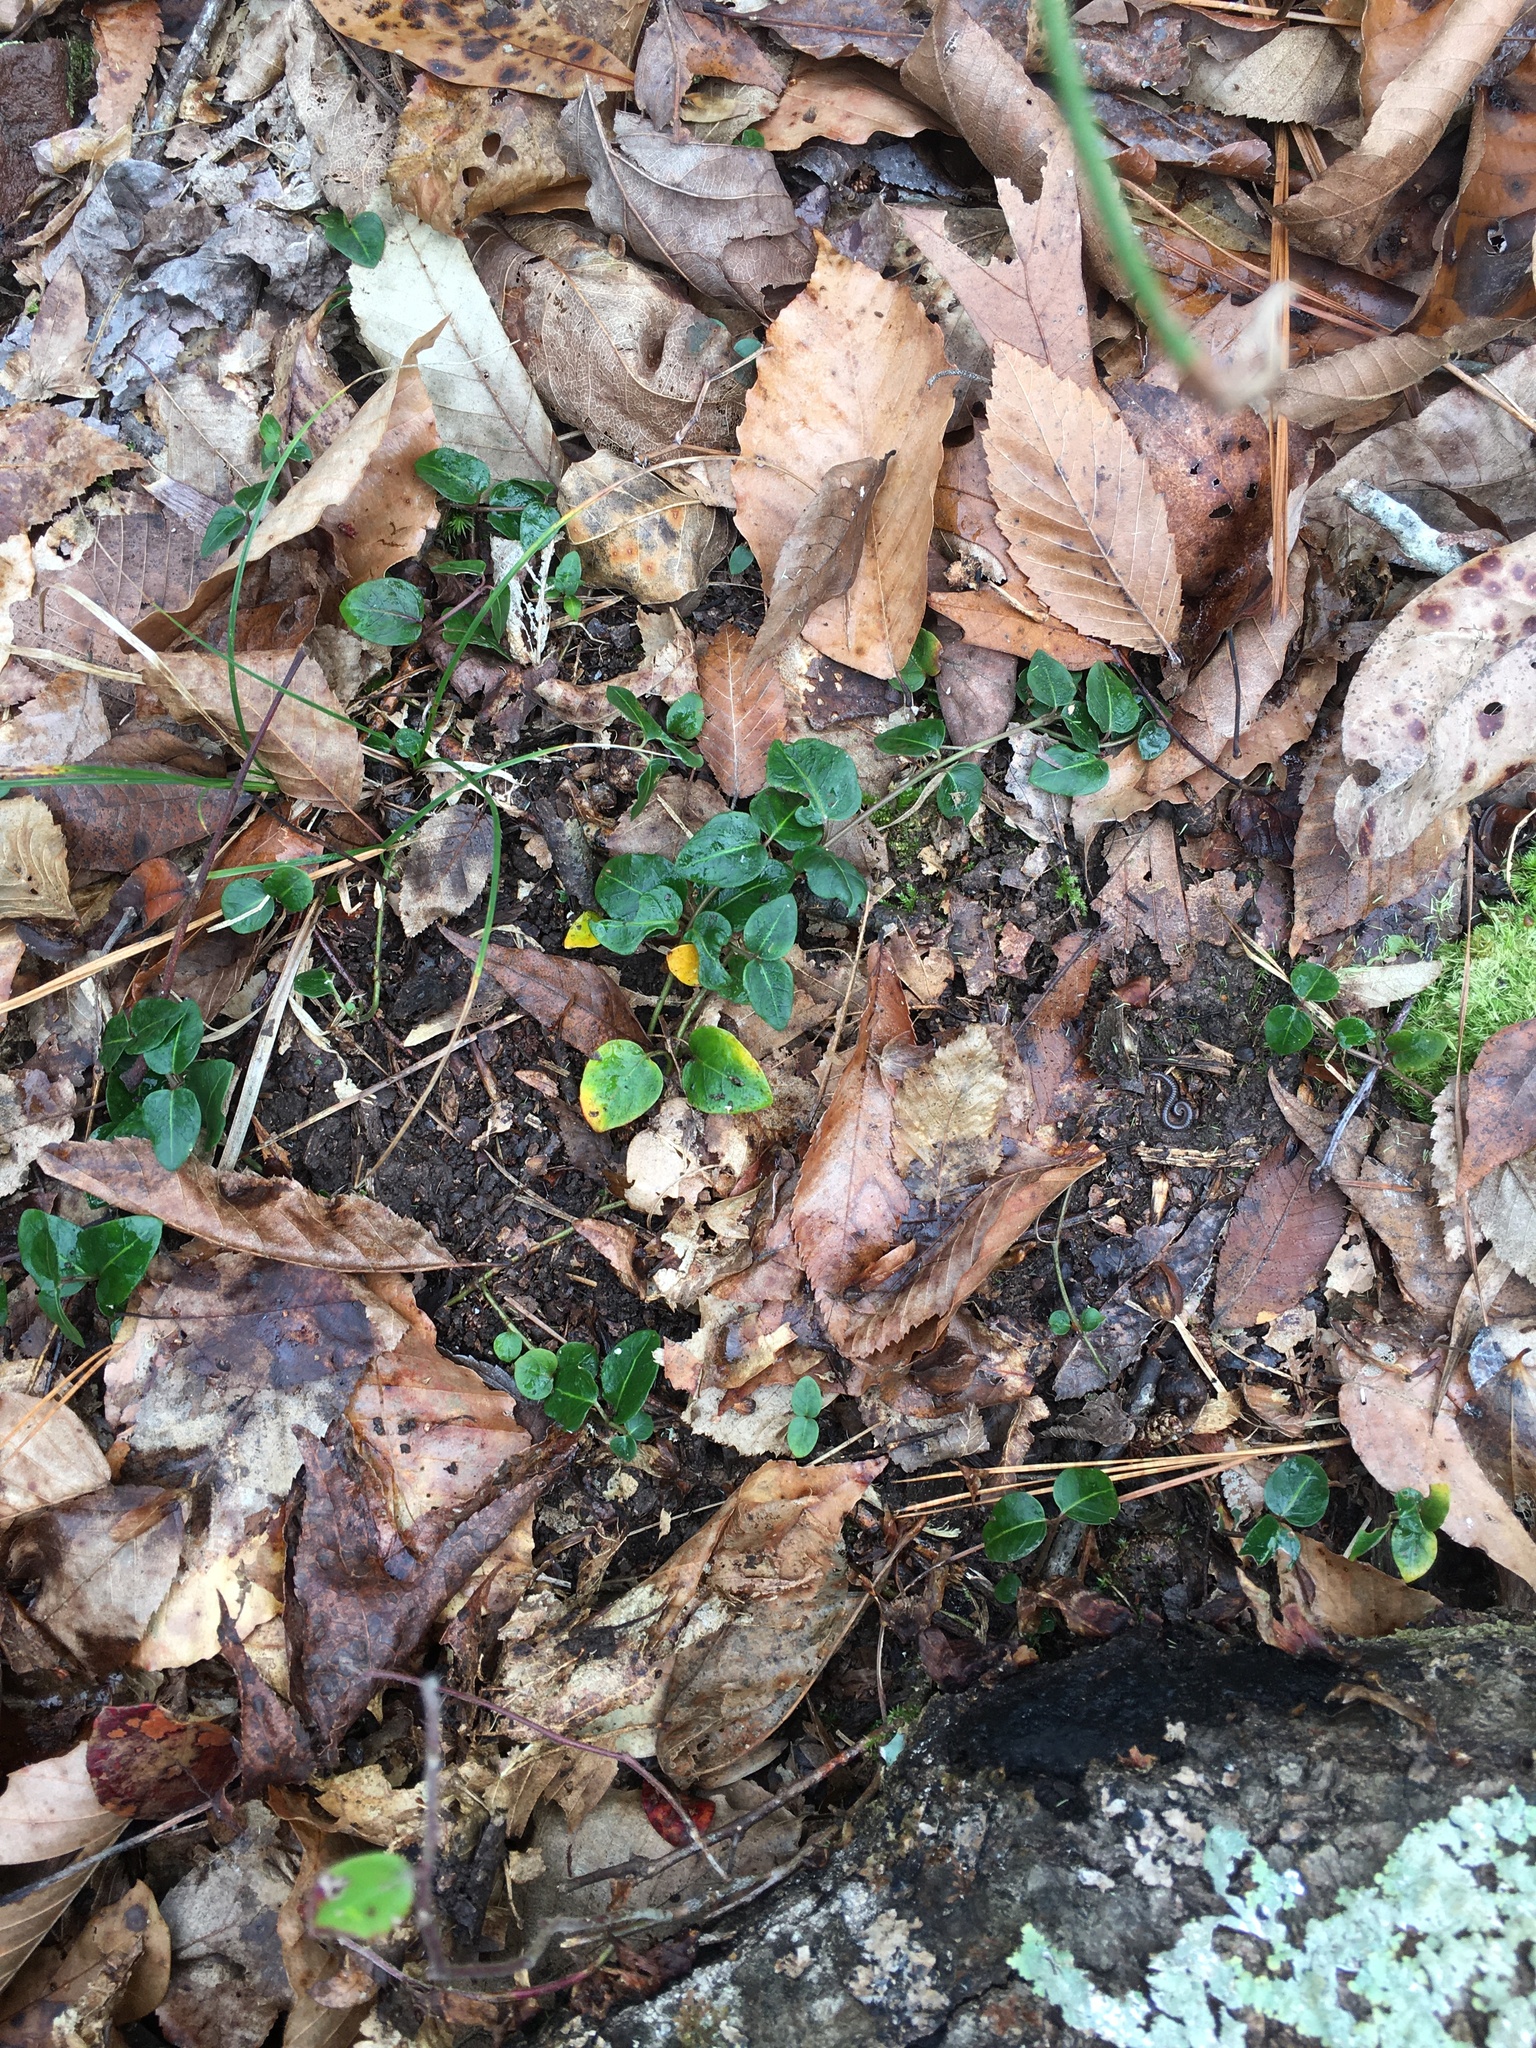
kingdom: Plantae
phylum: Tracheophyta
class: Magnoliopsida
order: Gentianales
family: Rubiaceae
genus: Mitchella
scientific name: Mitchella repens
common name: Partridge-berry
